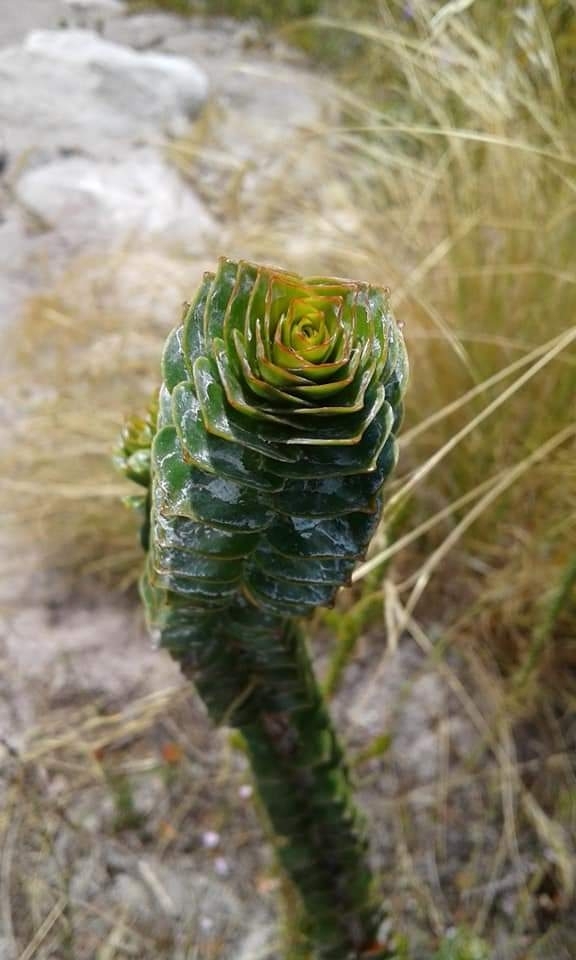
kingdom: Plantae
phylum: Tracheophyta
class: Magnoliopsida
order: Myrtales
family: Penaeaceae
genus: Saltera
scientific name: Saltera sarcocolla
